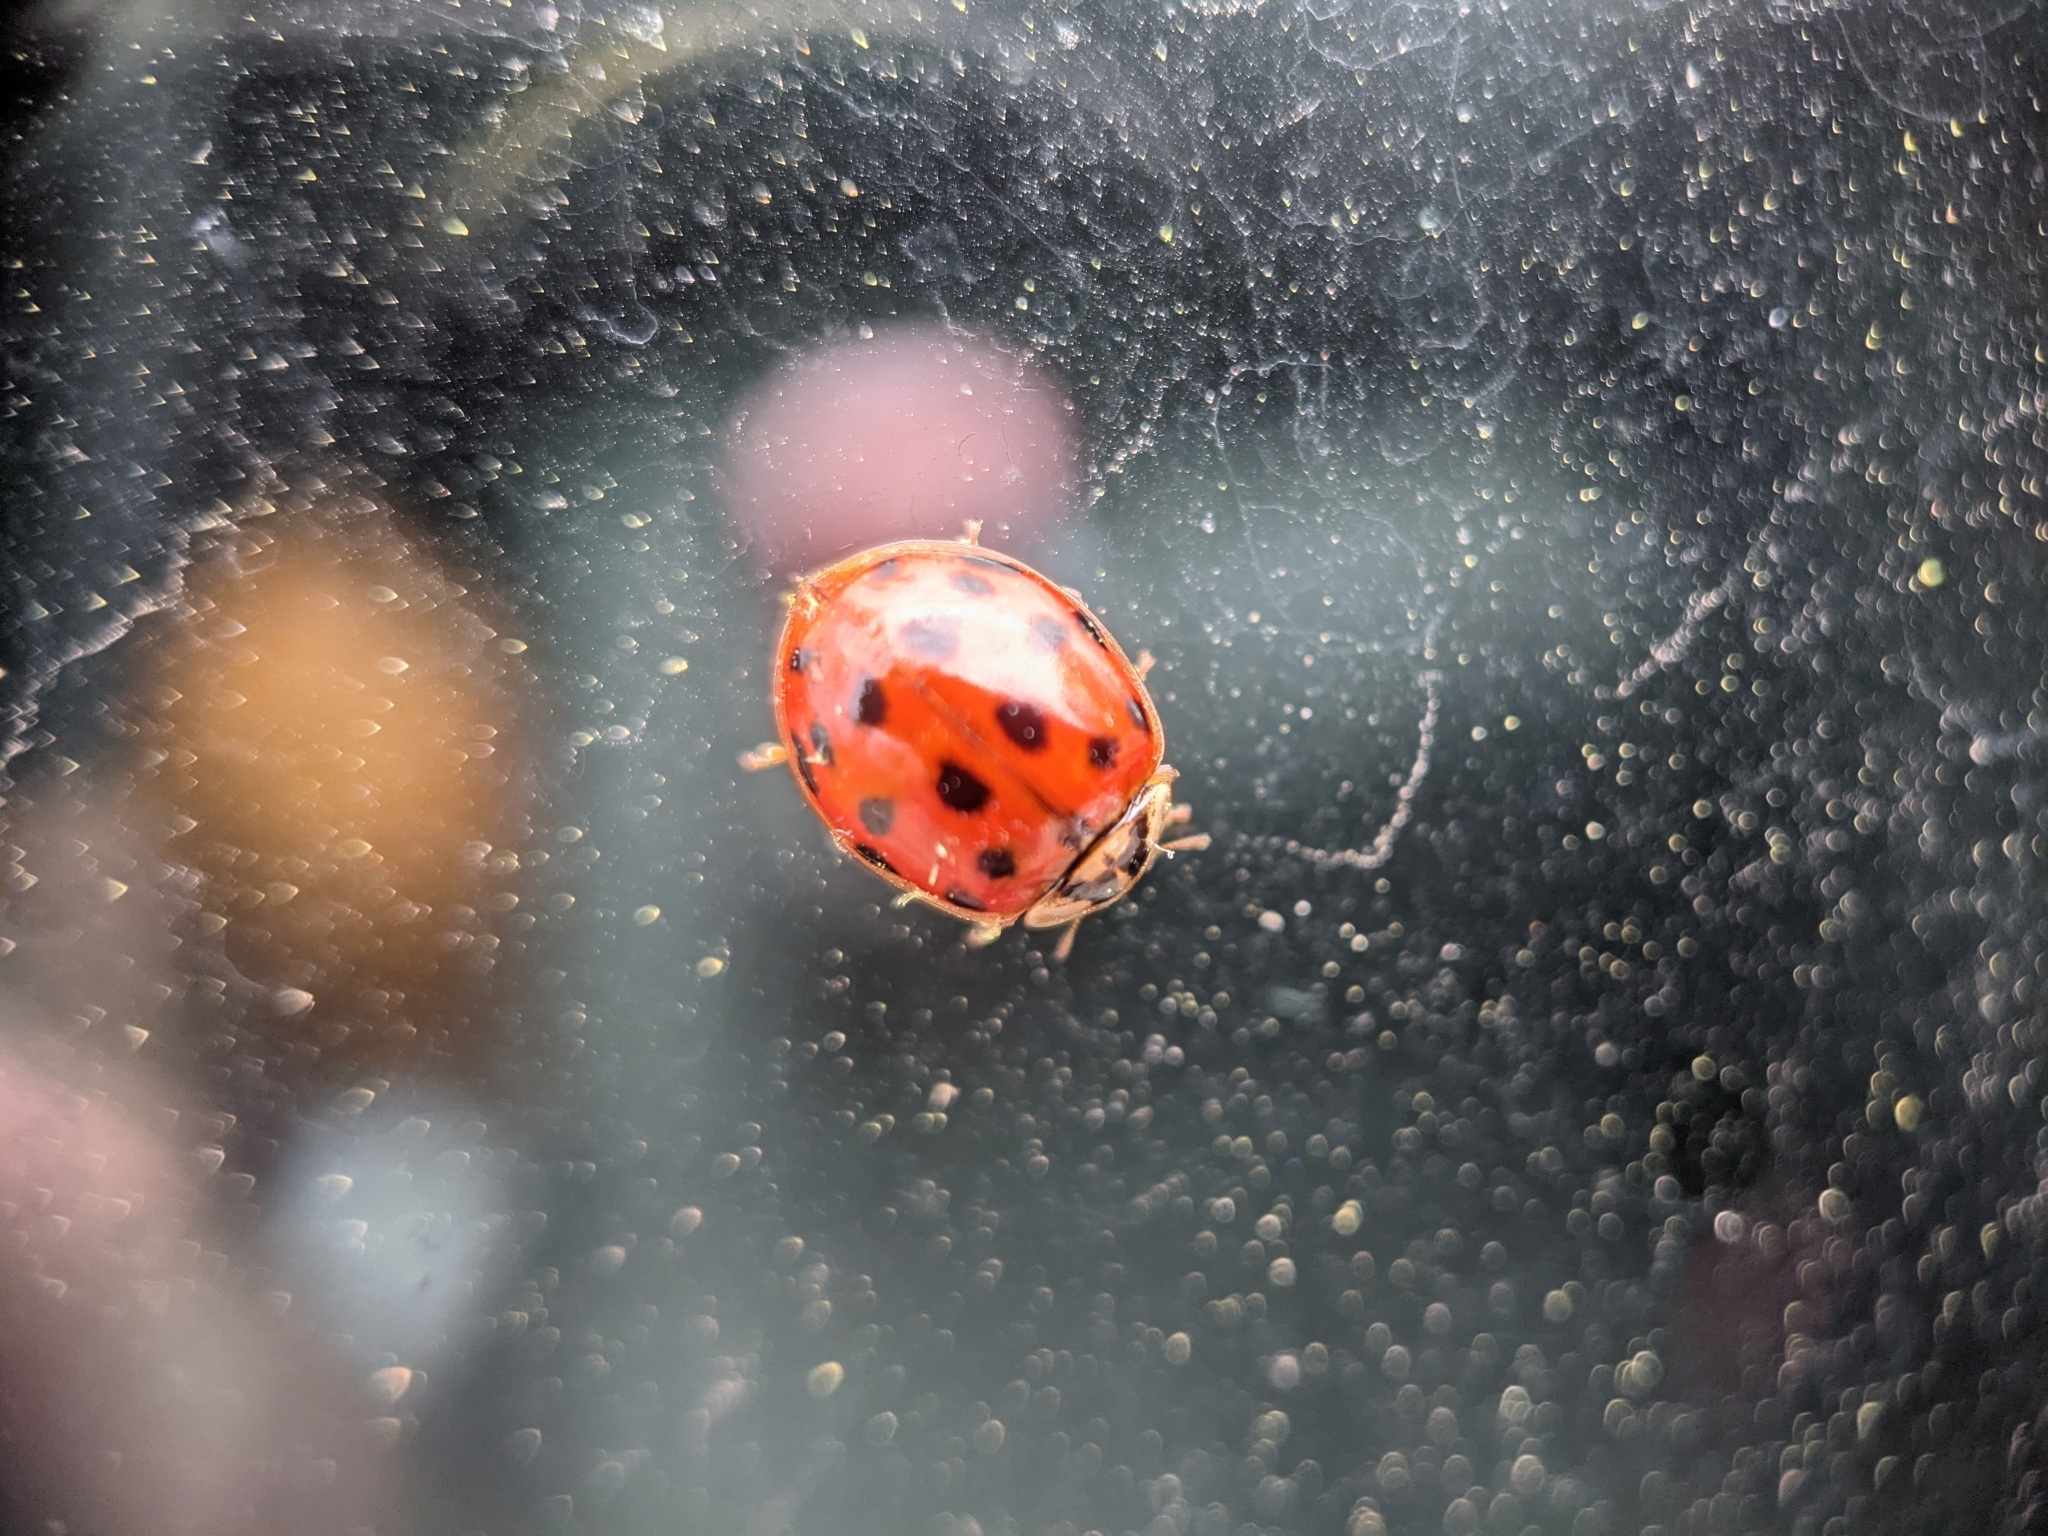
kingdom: Animalia
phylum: Arthropoda
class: Insecta
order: Coleoptera
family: Coccinellidae
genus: Harmonia
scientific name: Harmonia axyridis
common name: Harlequin ladybird
